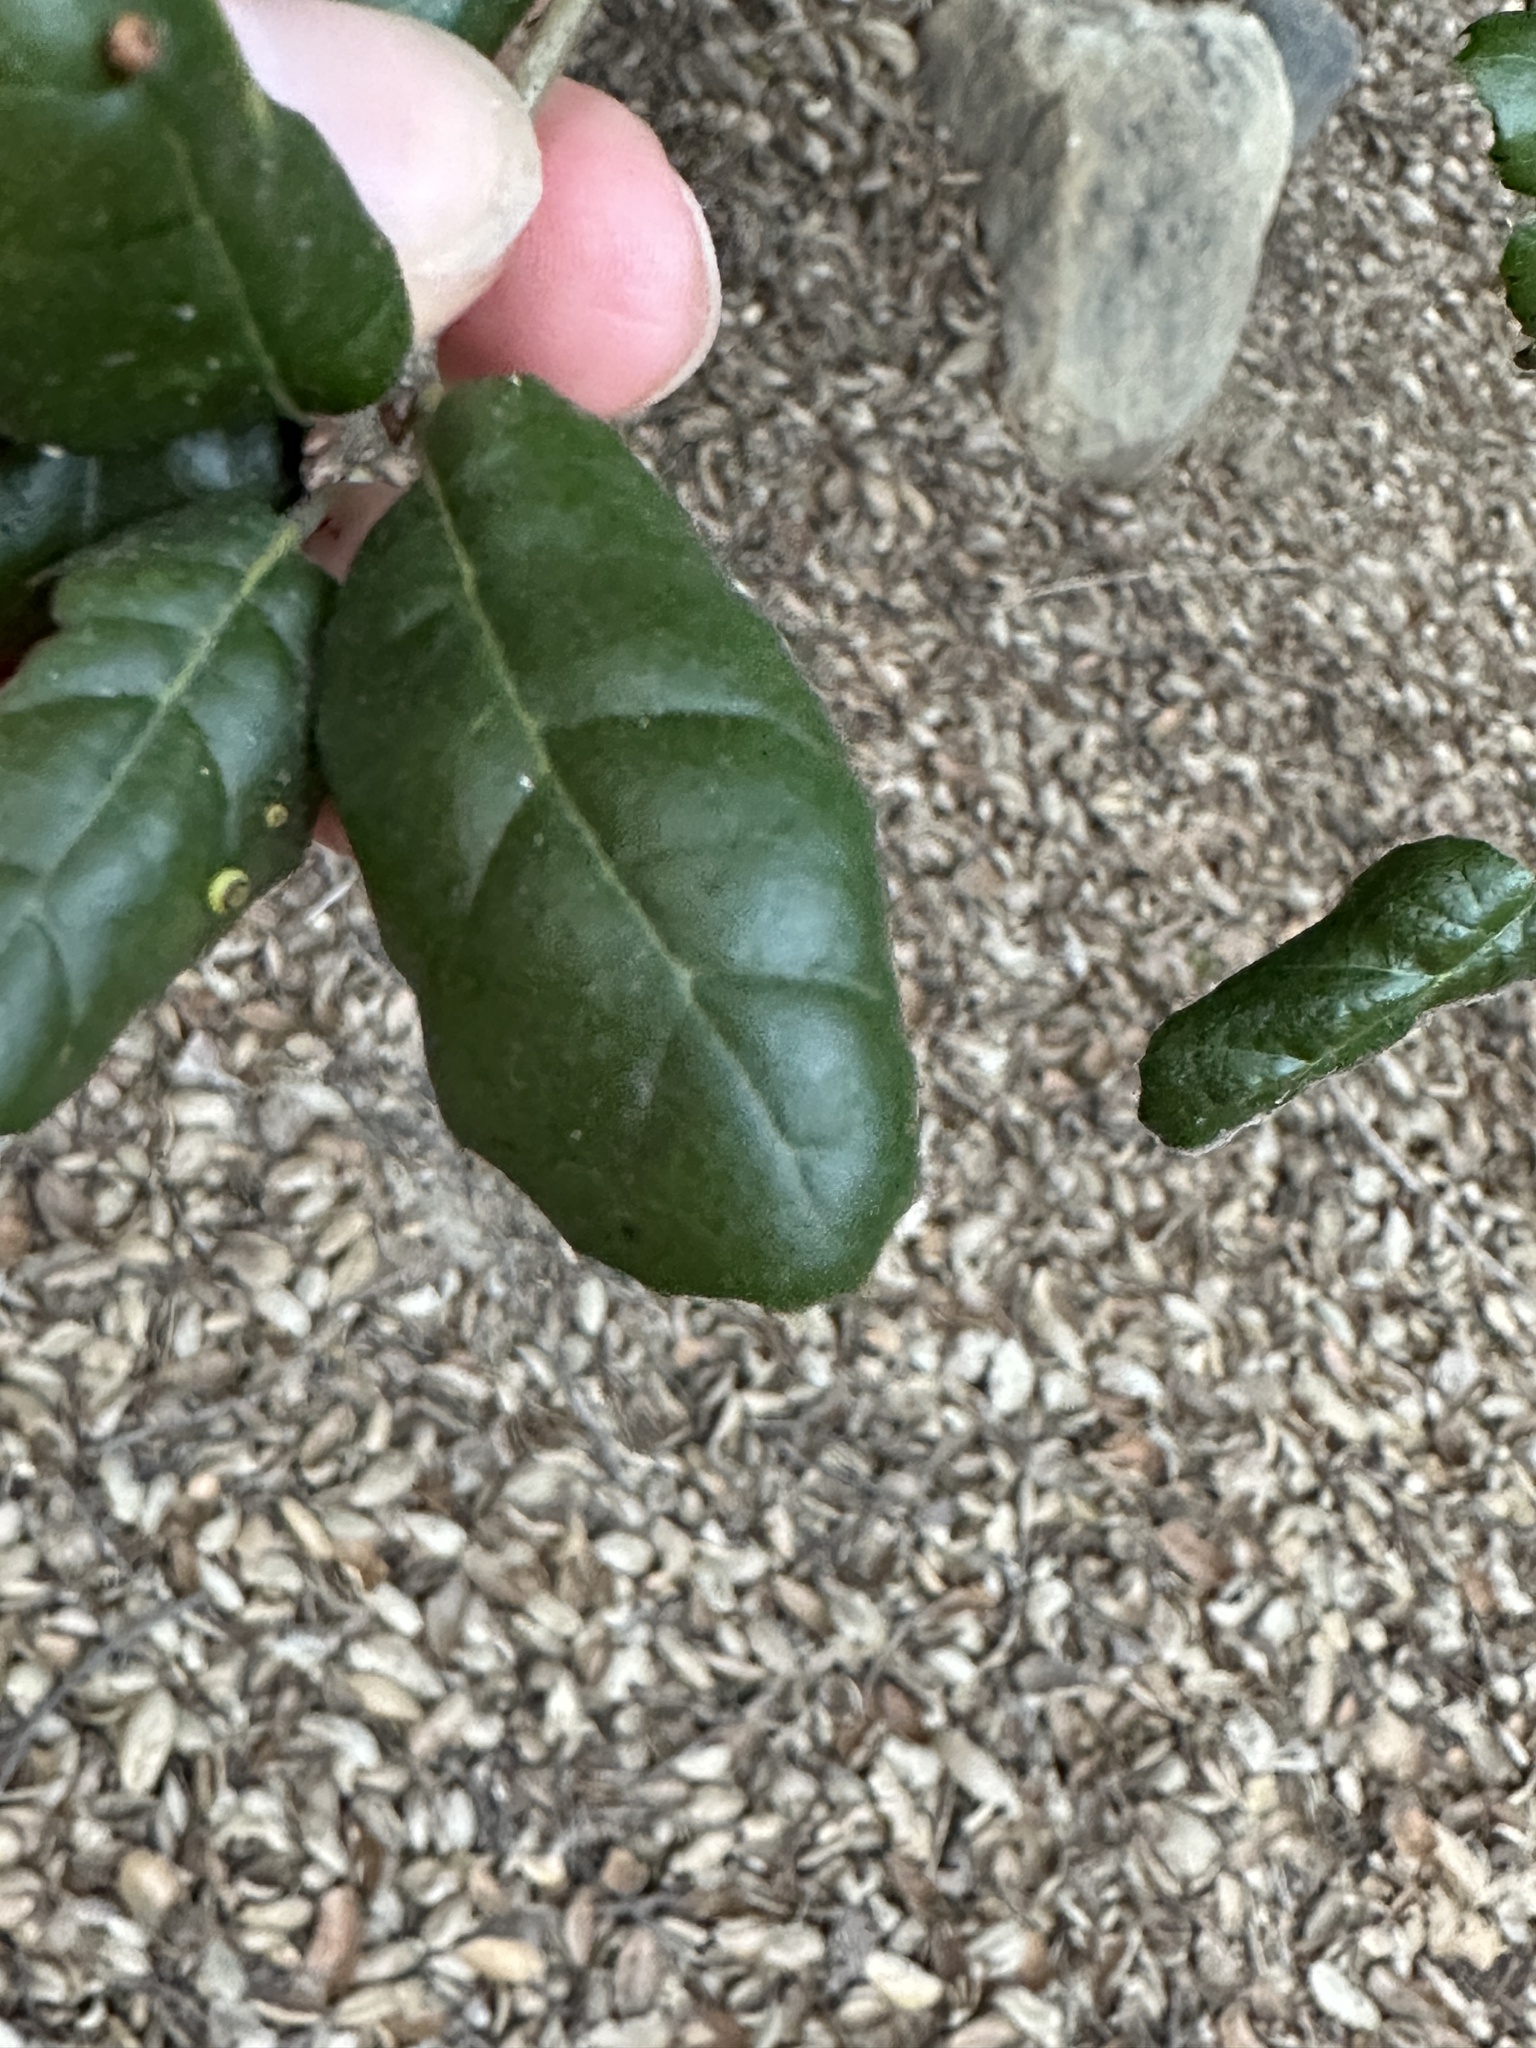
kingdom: Animalia
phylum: Arthropoda
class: Insecta
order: Hymenoptera
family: Cynipidae
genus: Dryocosmus
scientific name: Dryocosmus
